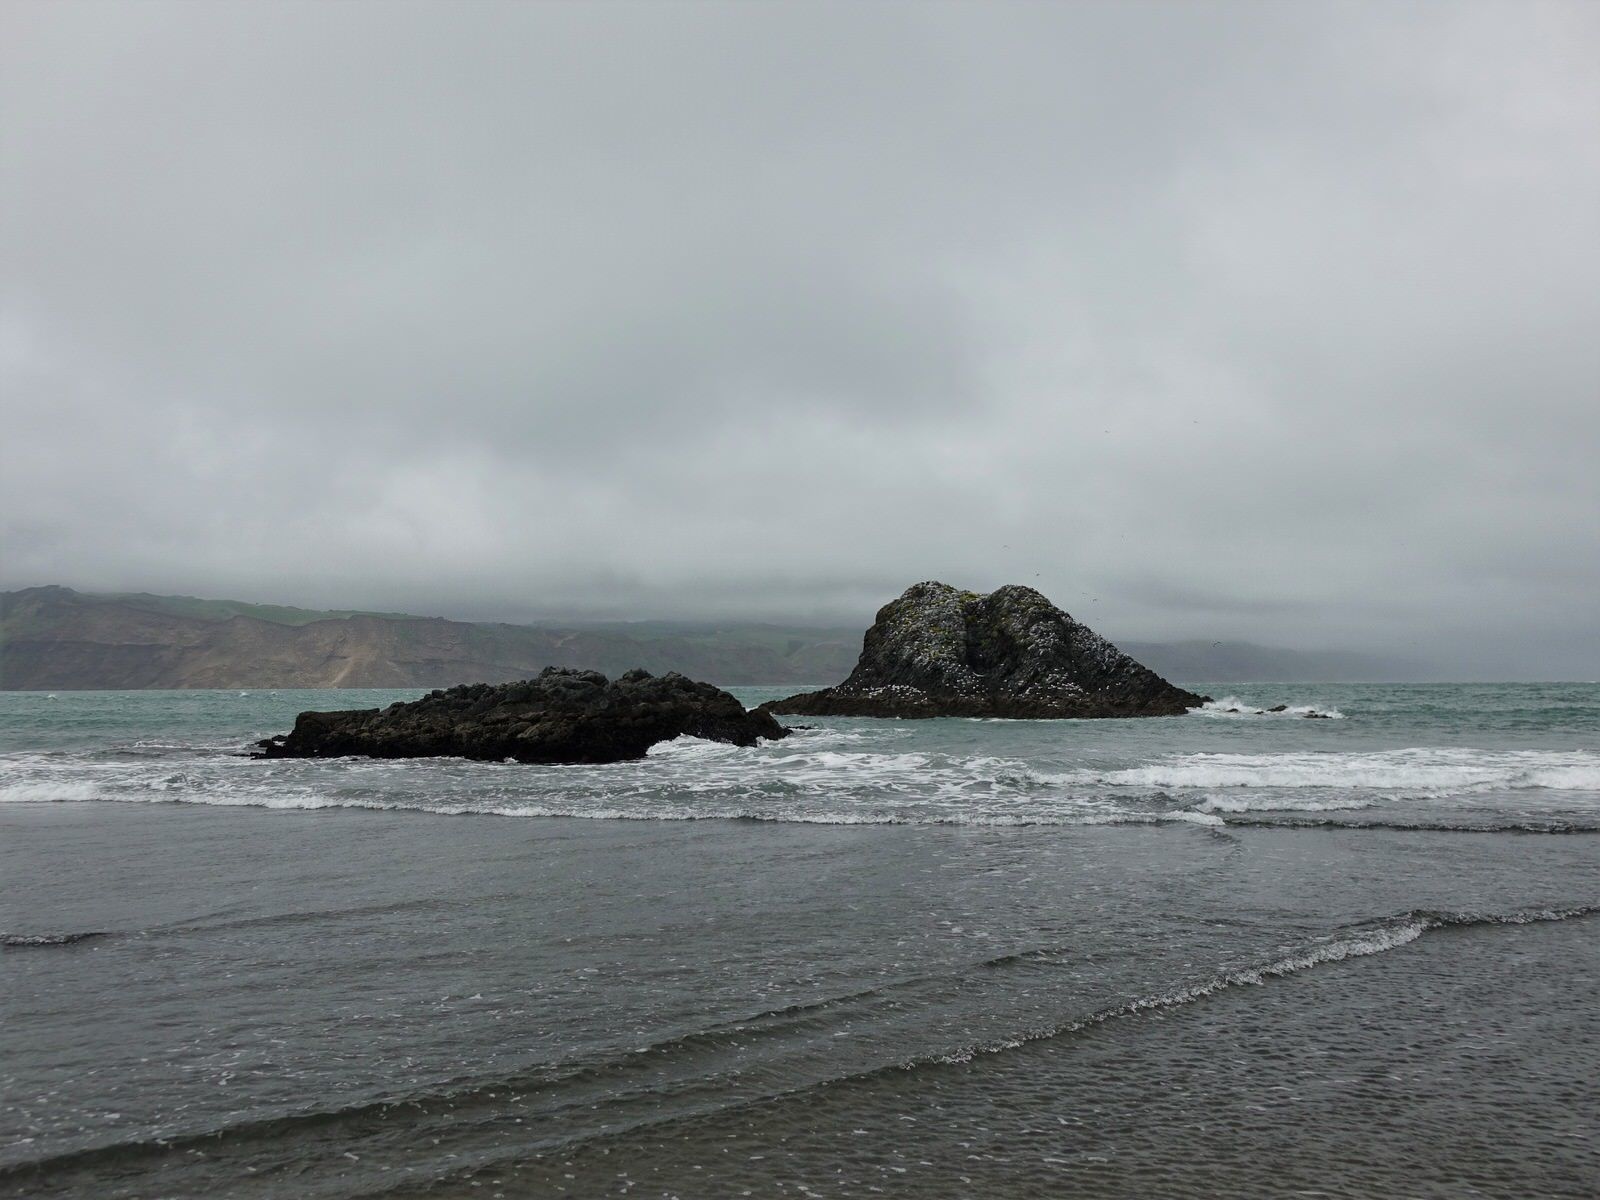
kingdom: Animalia
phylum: Chordata
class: Aves
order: Charadriiformes
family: Laridae
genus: Sterna
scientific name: Sterna striata
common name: White-fronted tern
